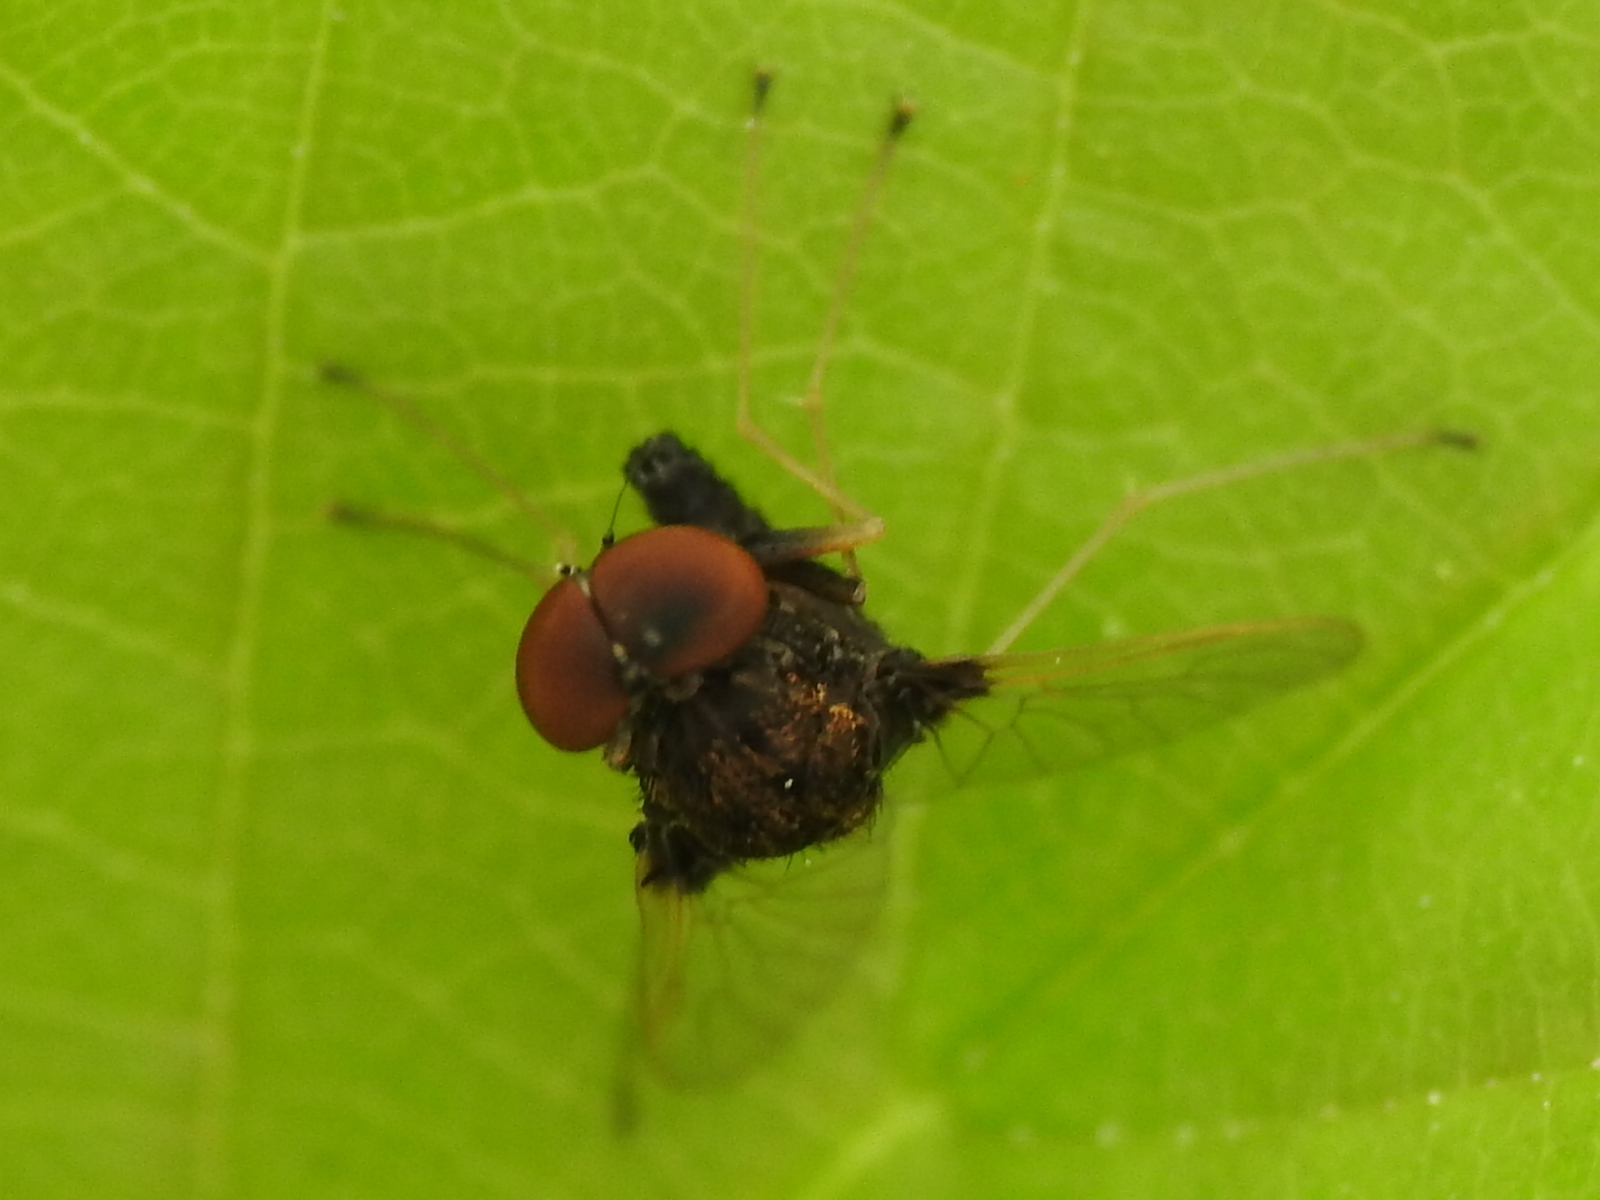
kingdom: Animalia
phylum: Arthropoda
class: Insecta
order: Diptera
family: Rhagionidae
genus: Chrysopilus
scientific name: Chrysopilus basilaris
